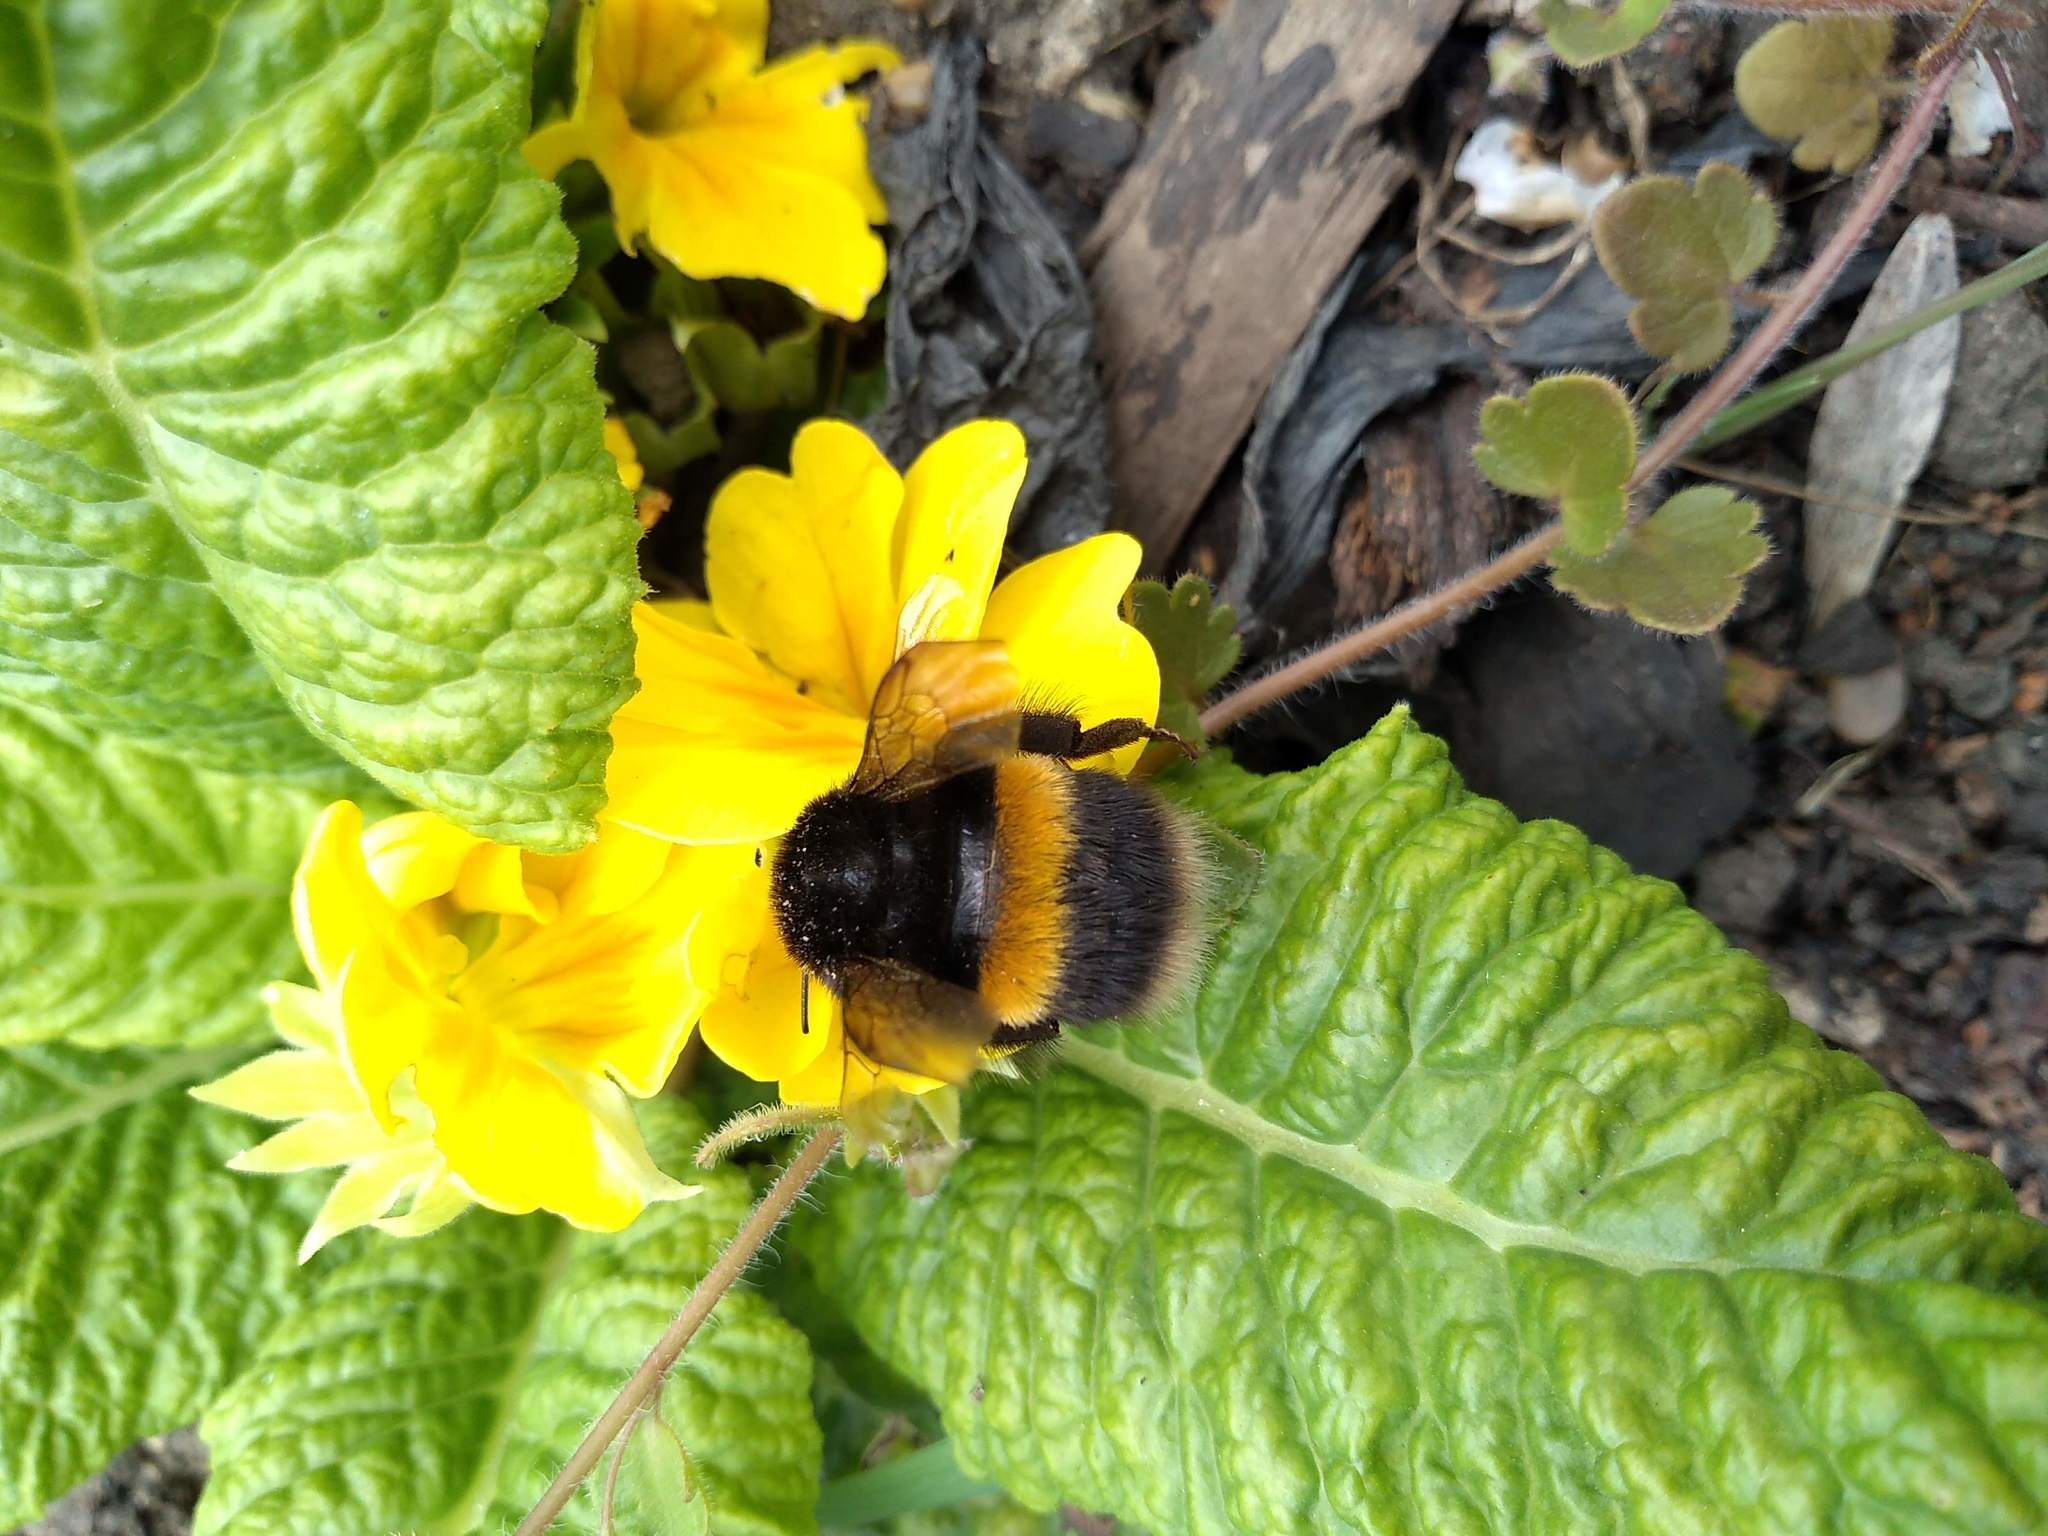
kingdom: Animalia
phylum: Arthropoda
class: Insecta
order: Hymenoptera
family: Apidae
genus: Bombus
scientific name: Bombus terrestris
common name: Buff-tailed bumblebee
